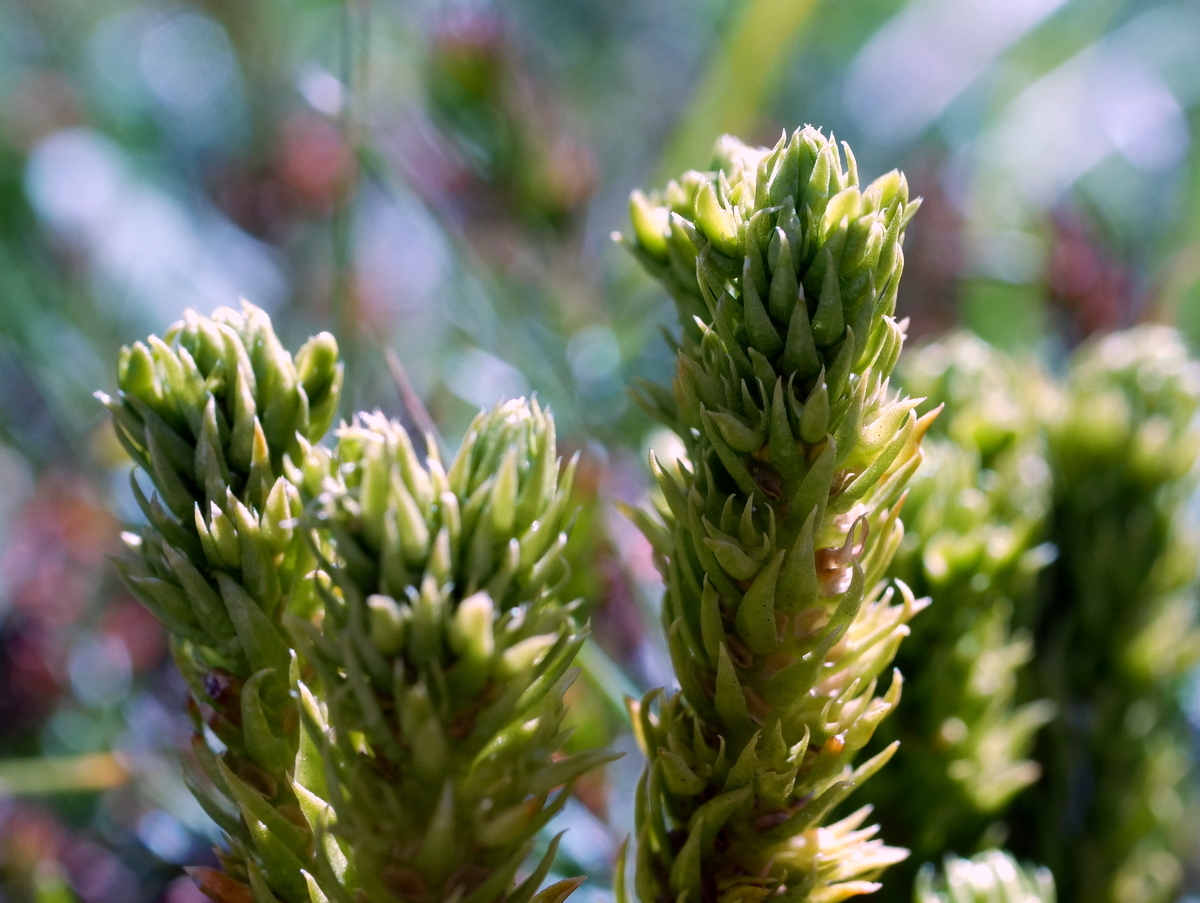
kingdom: Plantae
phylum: Tracheophyta
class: Lycopodiopsida
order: Lycopodiales
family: Lycopodiaceae
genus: Huperzia
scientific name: Huperzia selago
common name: Northern firmoss
